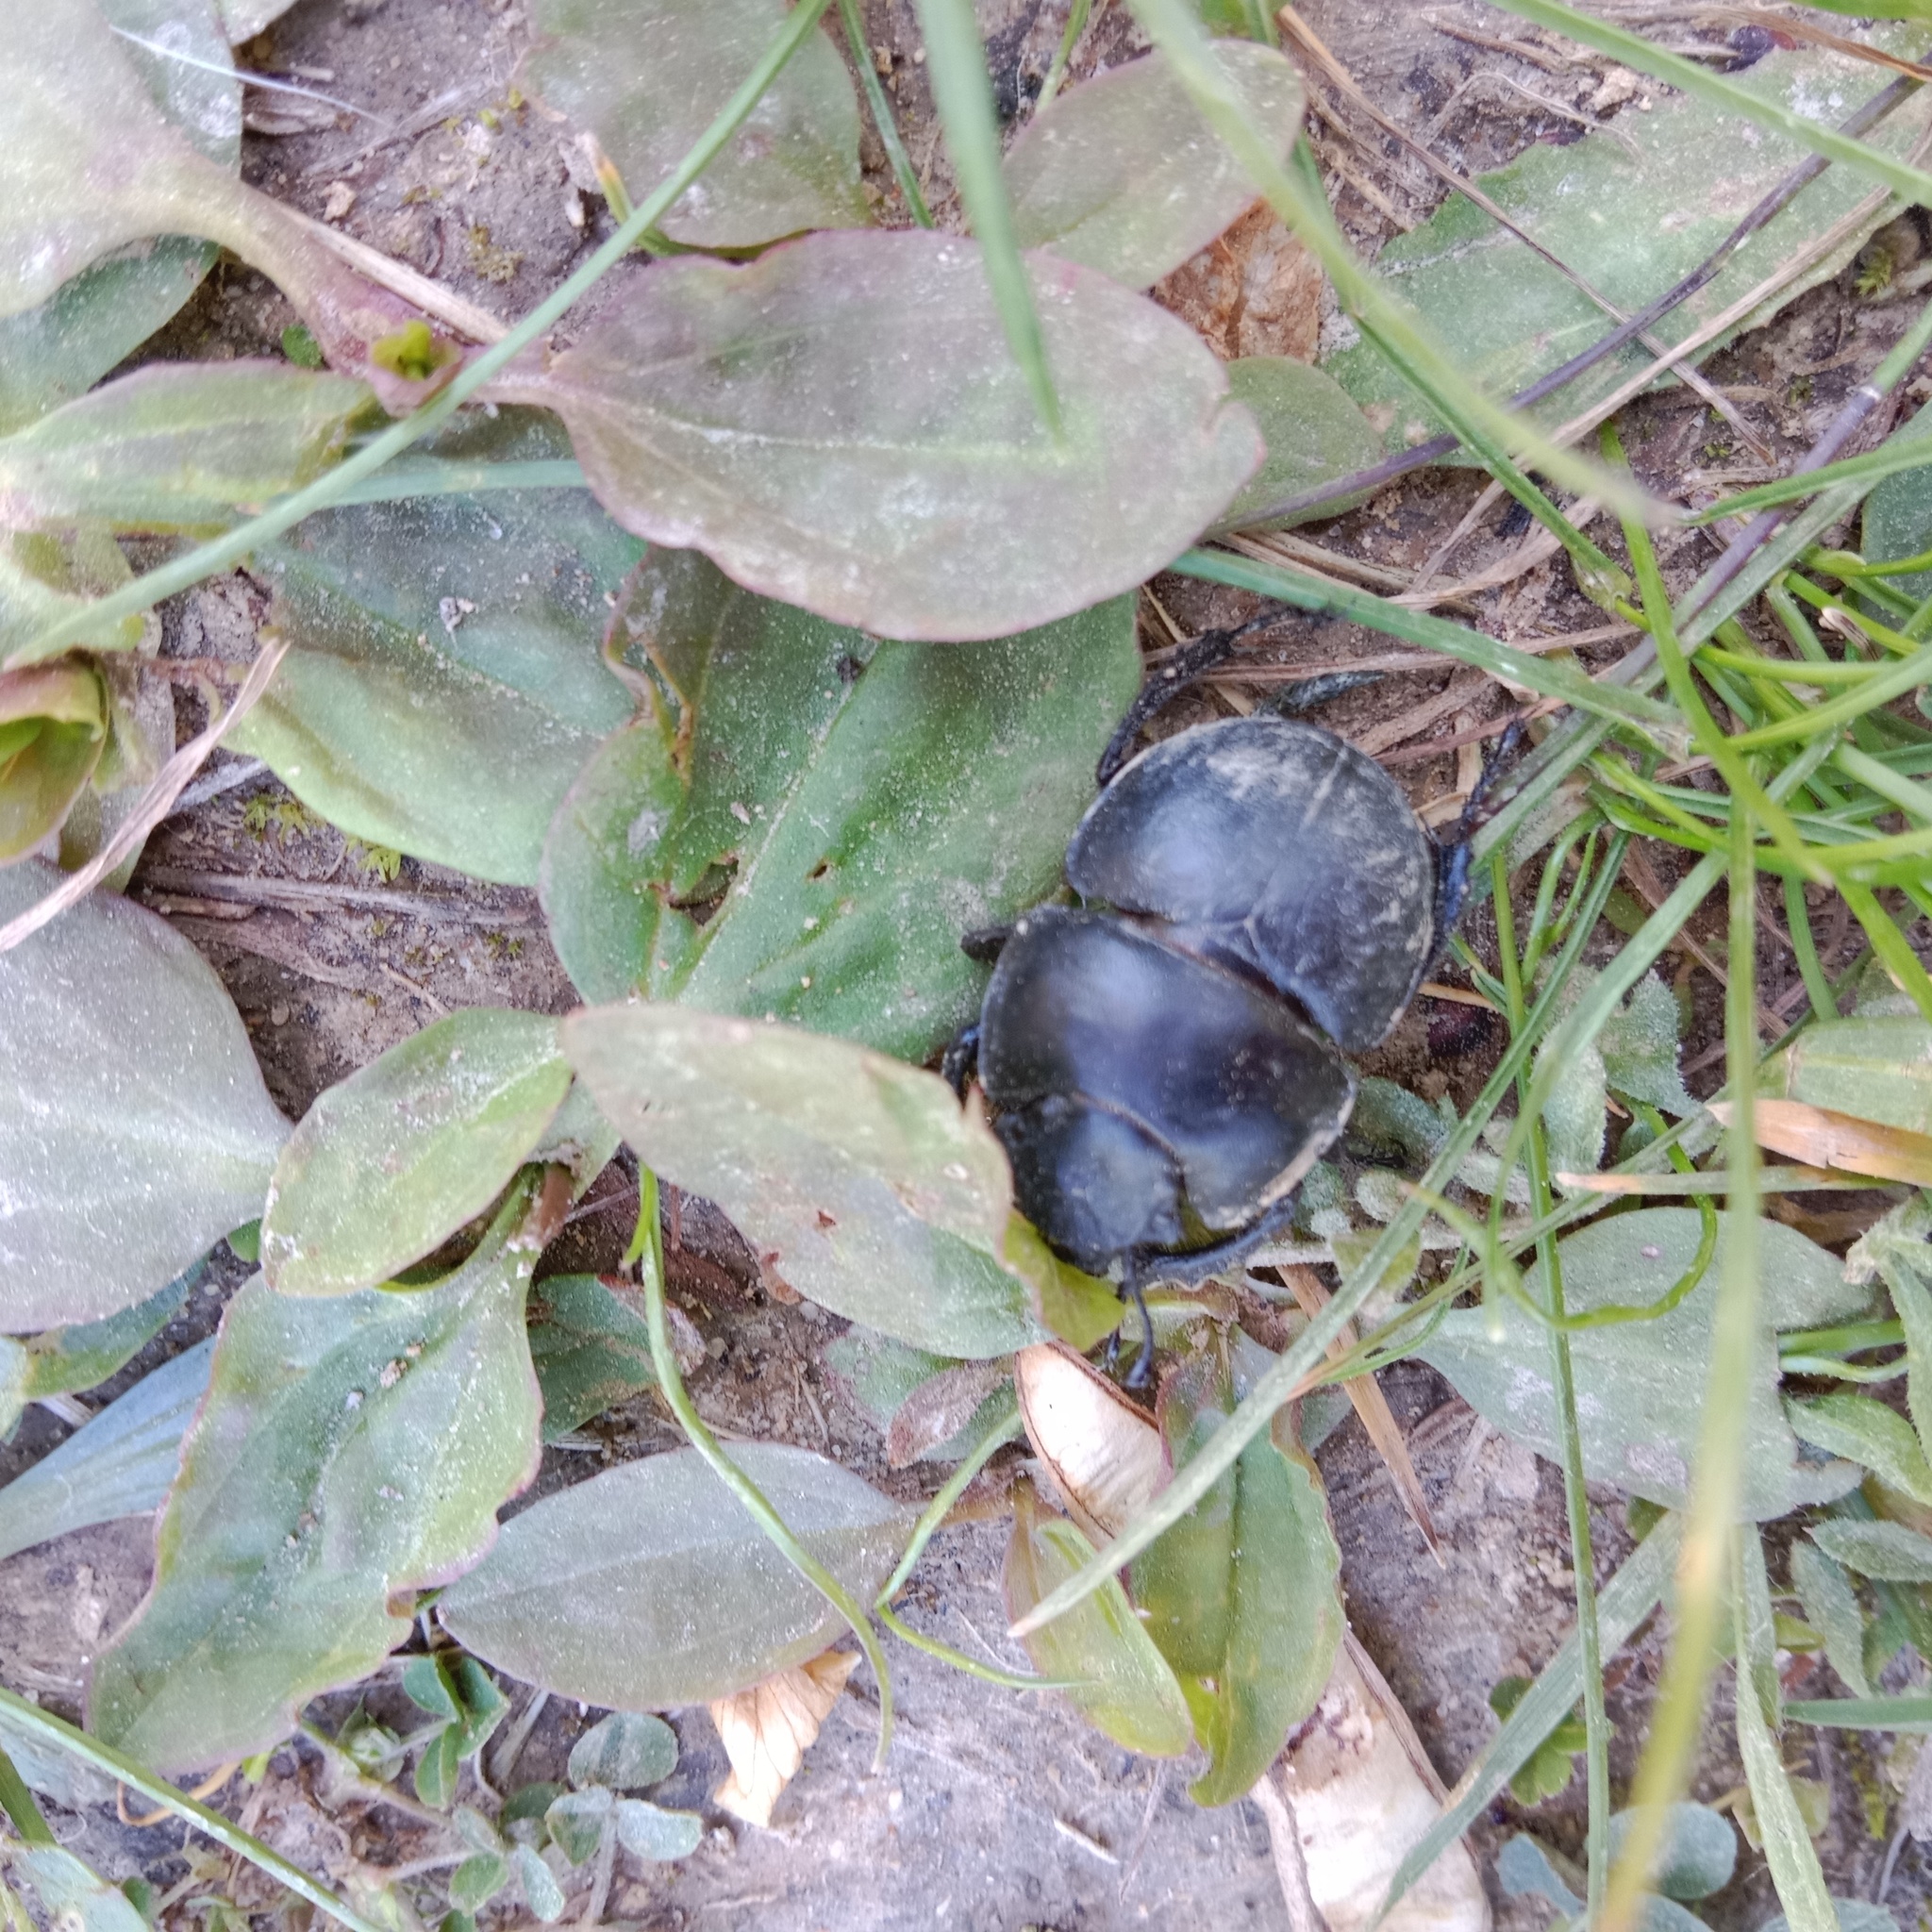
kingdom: Animalia
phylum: Arthropoda
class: Insecta
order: Coleoptera
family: Geotrupidae
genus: Lethrus
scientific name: Lethrus apterus
